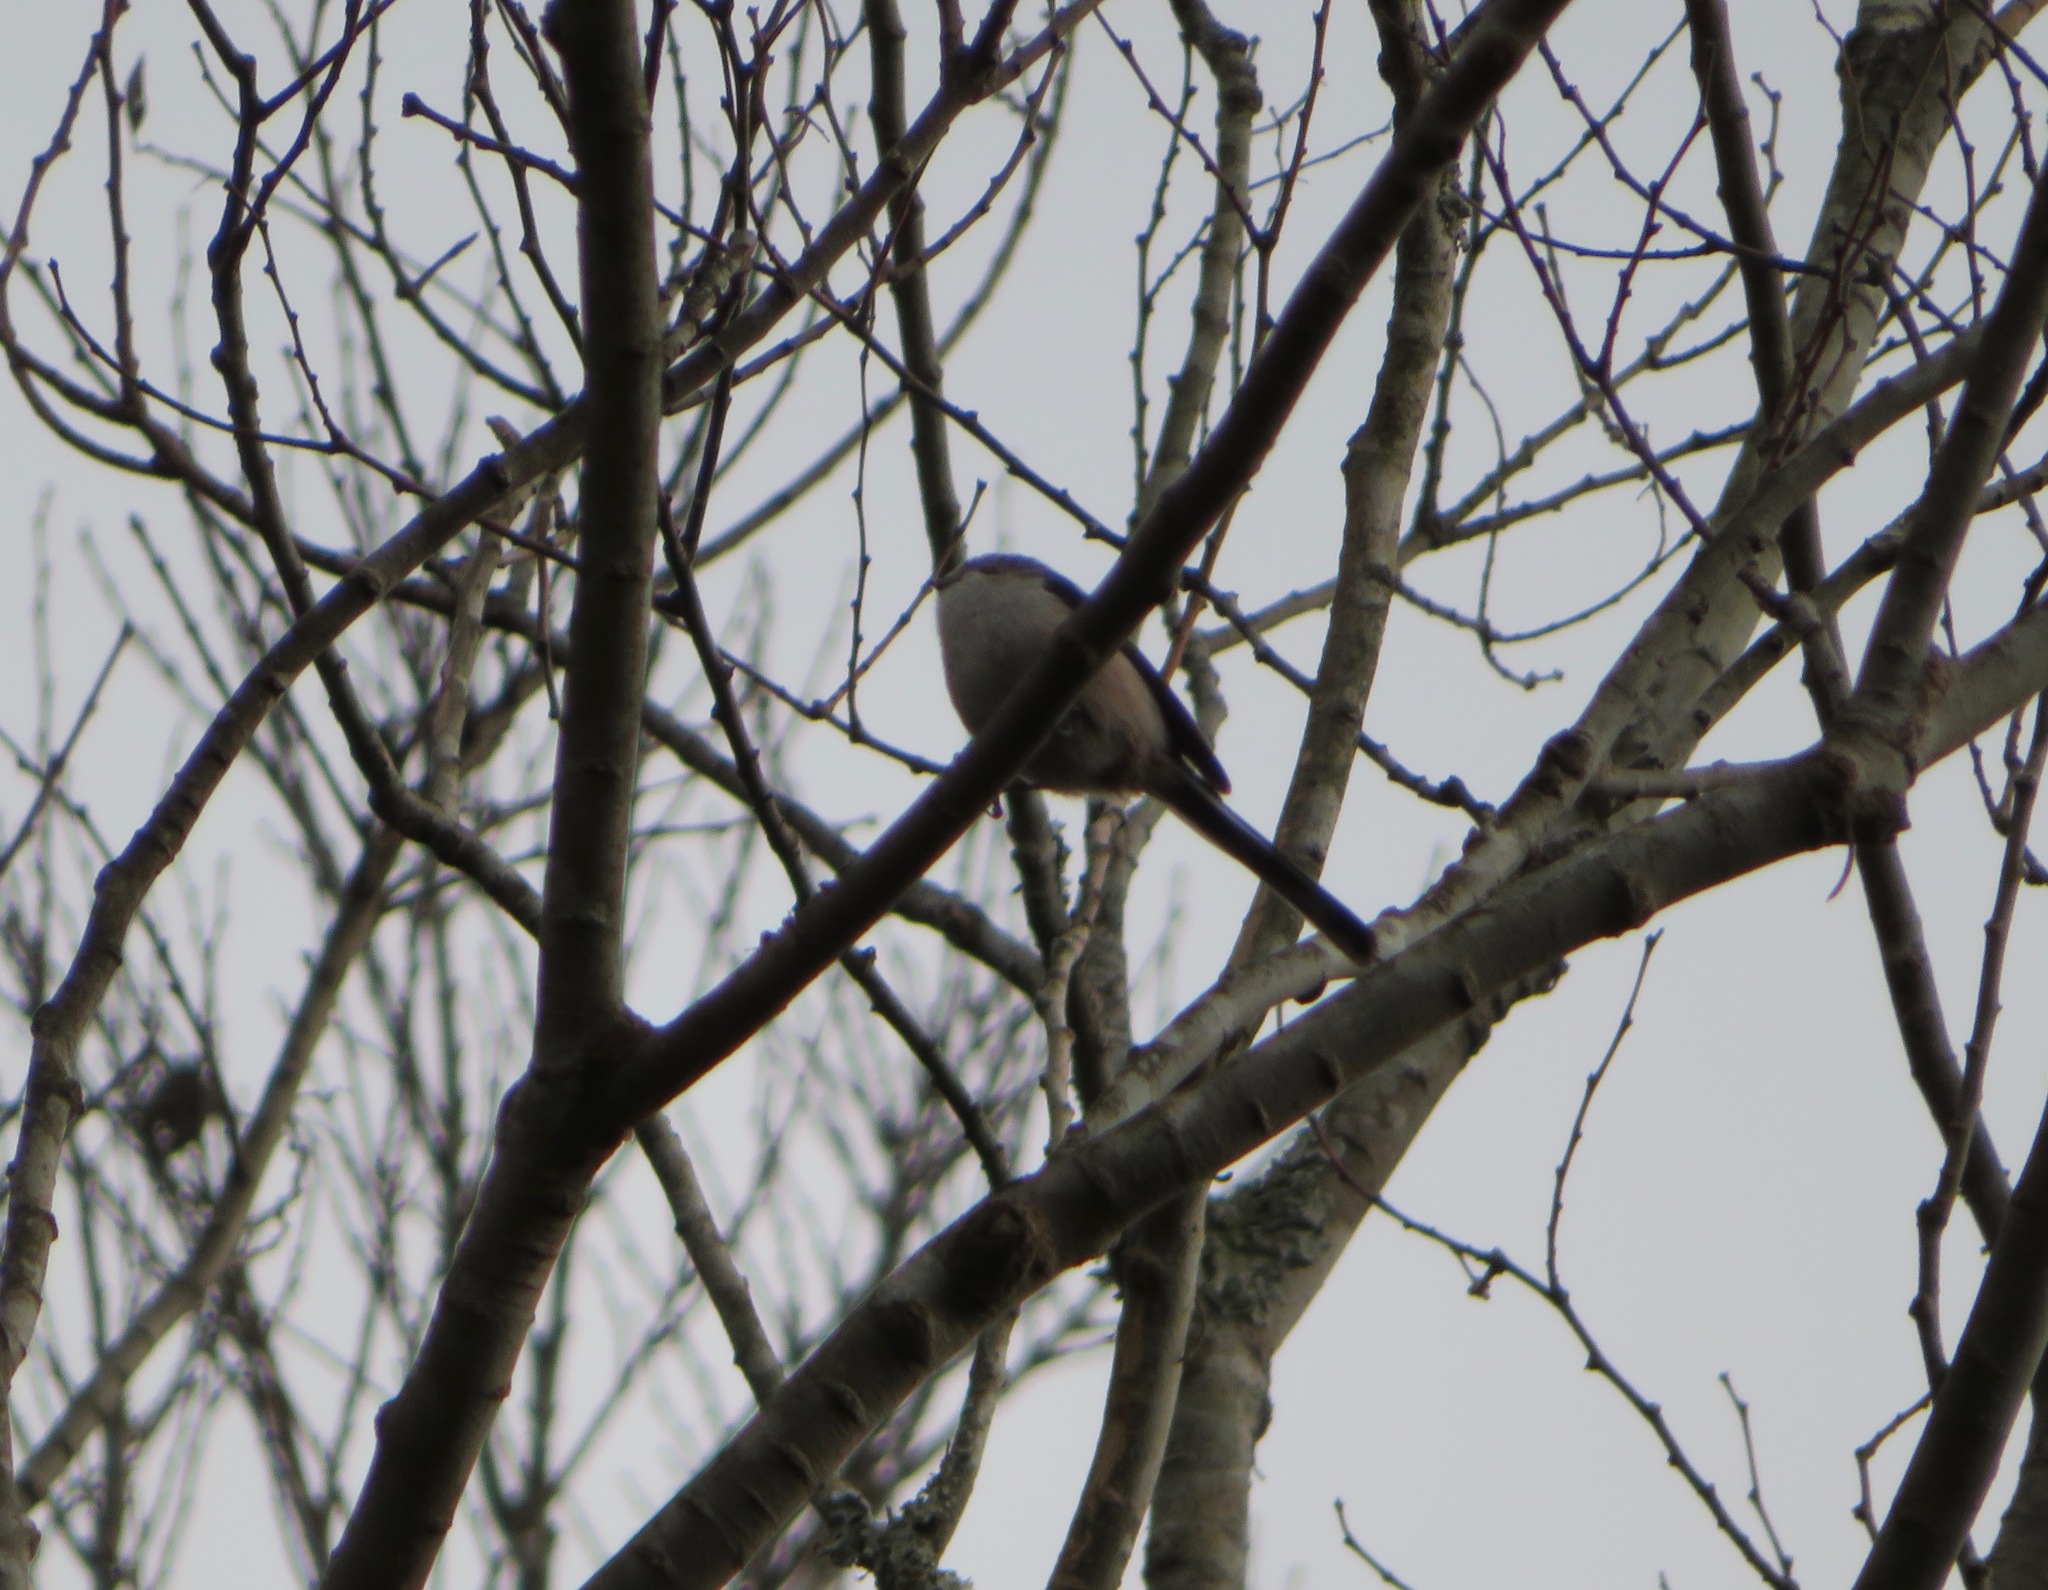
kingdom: Animalia
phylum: Chordata
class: Aves
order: Passeriformes
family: Aegithalidae
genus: Aegithalos
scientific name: Aegithalos caudatus
